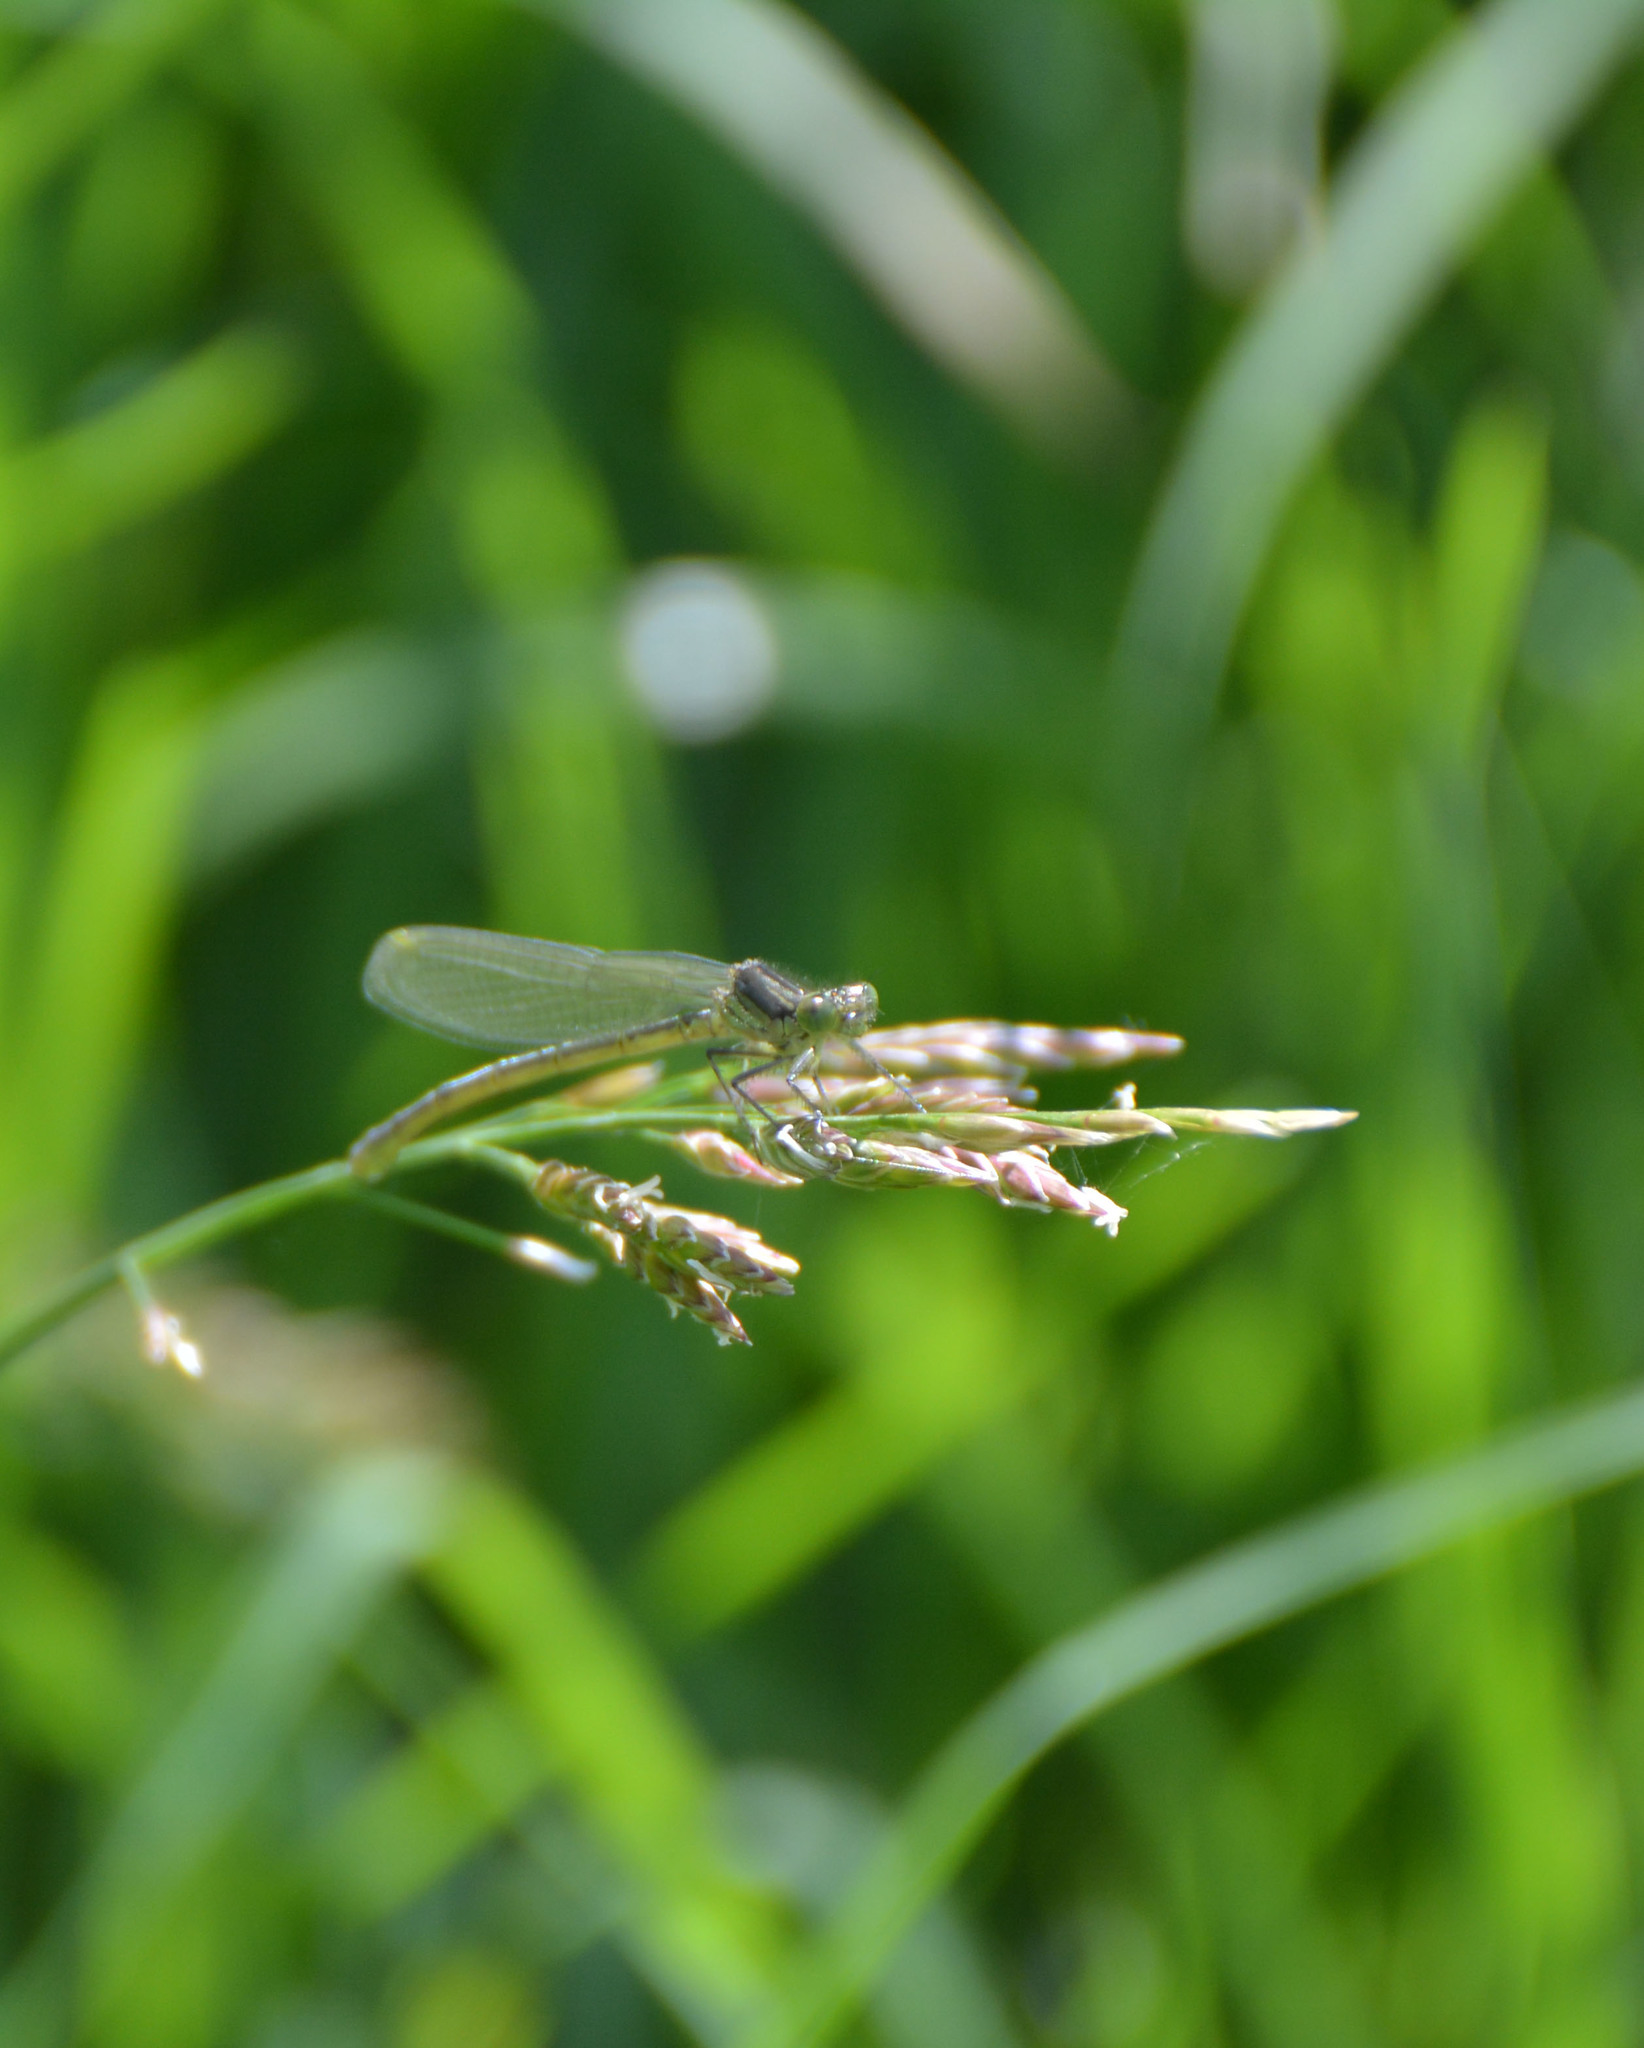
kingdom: Animalia
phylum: Arthropoda
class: Insecta
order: Odonata
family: Coenagrionidae
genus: Erythromma
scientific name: Erythromma najas
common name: Red-eyed damselfly
